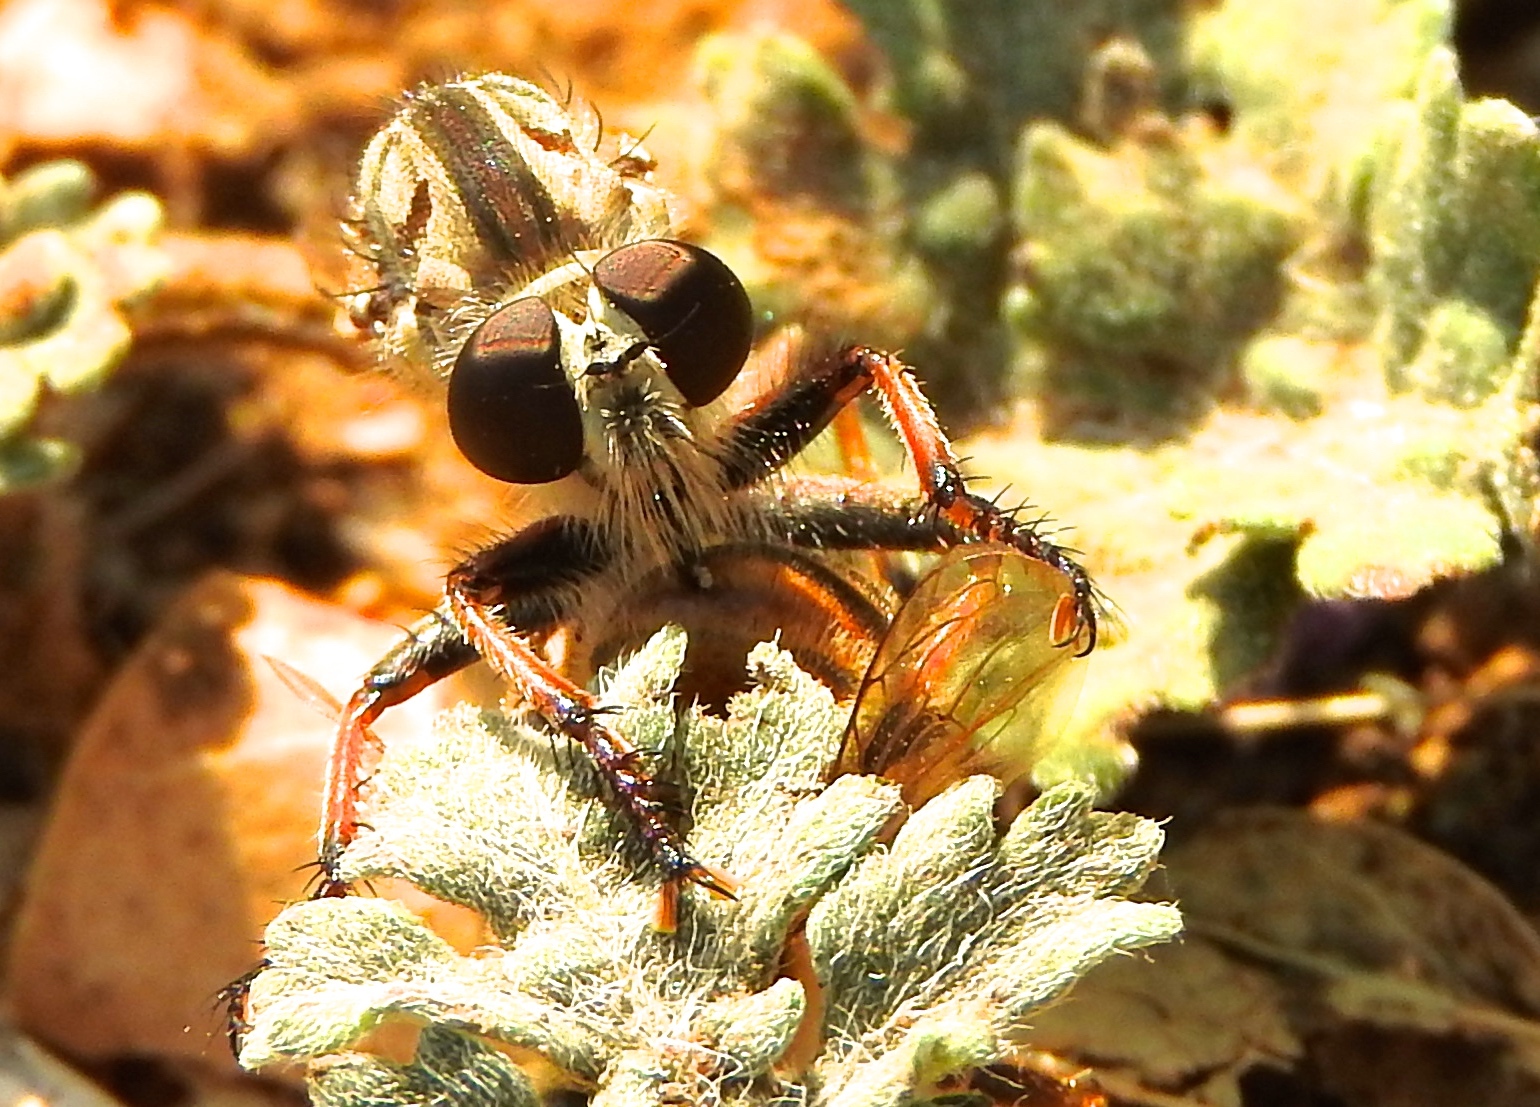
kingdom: Animalia
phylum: Arthropoda
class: Insecta
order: Diptera
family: Asilidae
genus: Efferia
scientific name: Efferia
